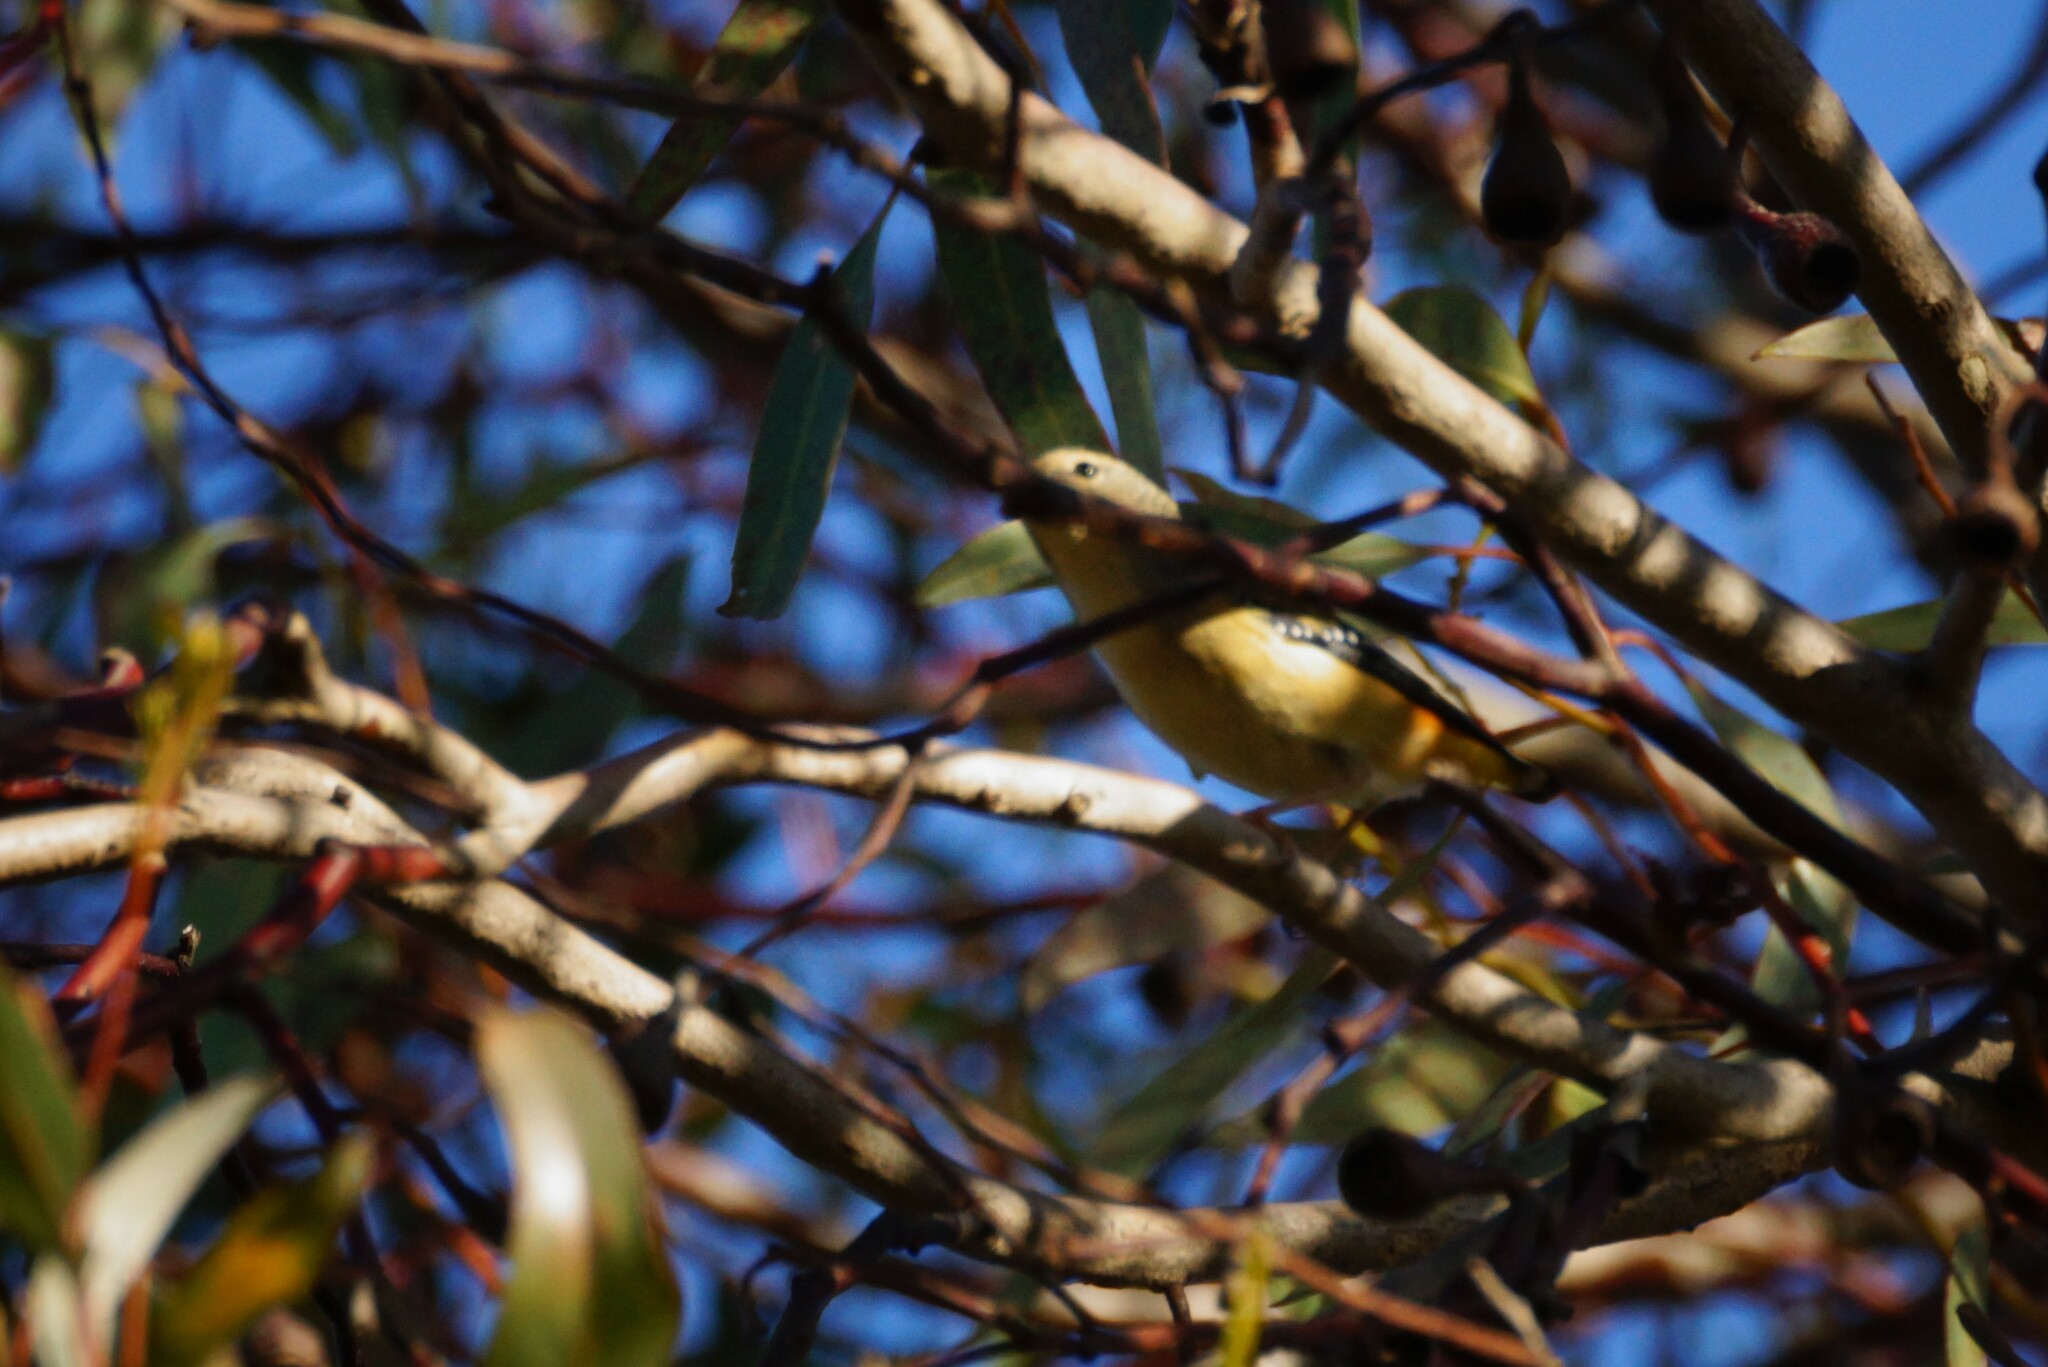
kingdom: Animalia
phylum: Chordata
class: Aves
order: Passeriformes
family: Pardalotidae
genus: Pardalotus
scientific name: Pardalotus punctatus
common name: Spotted pardalote
